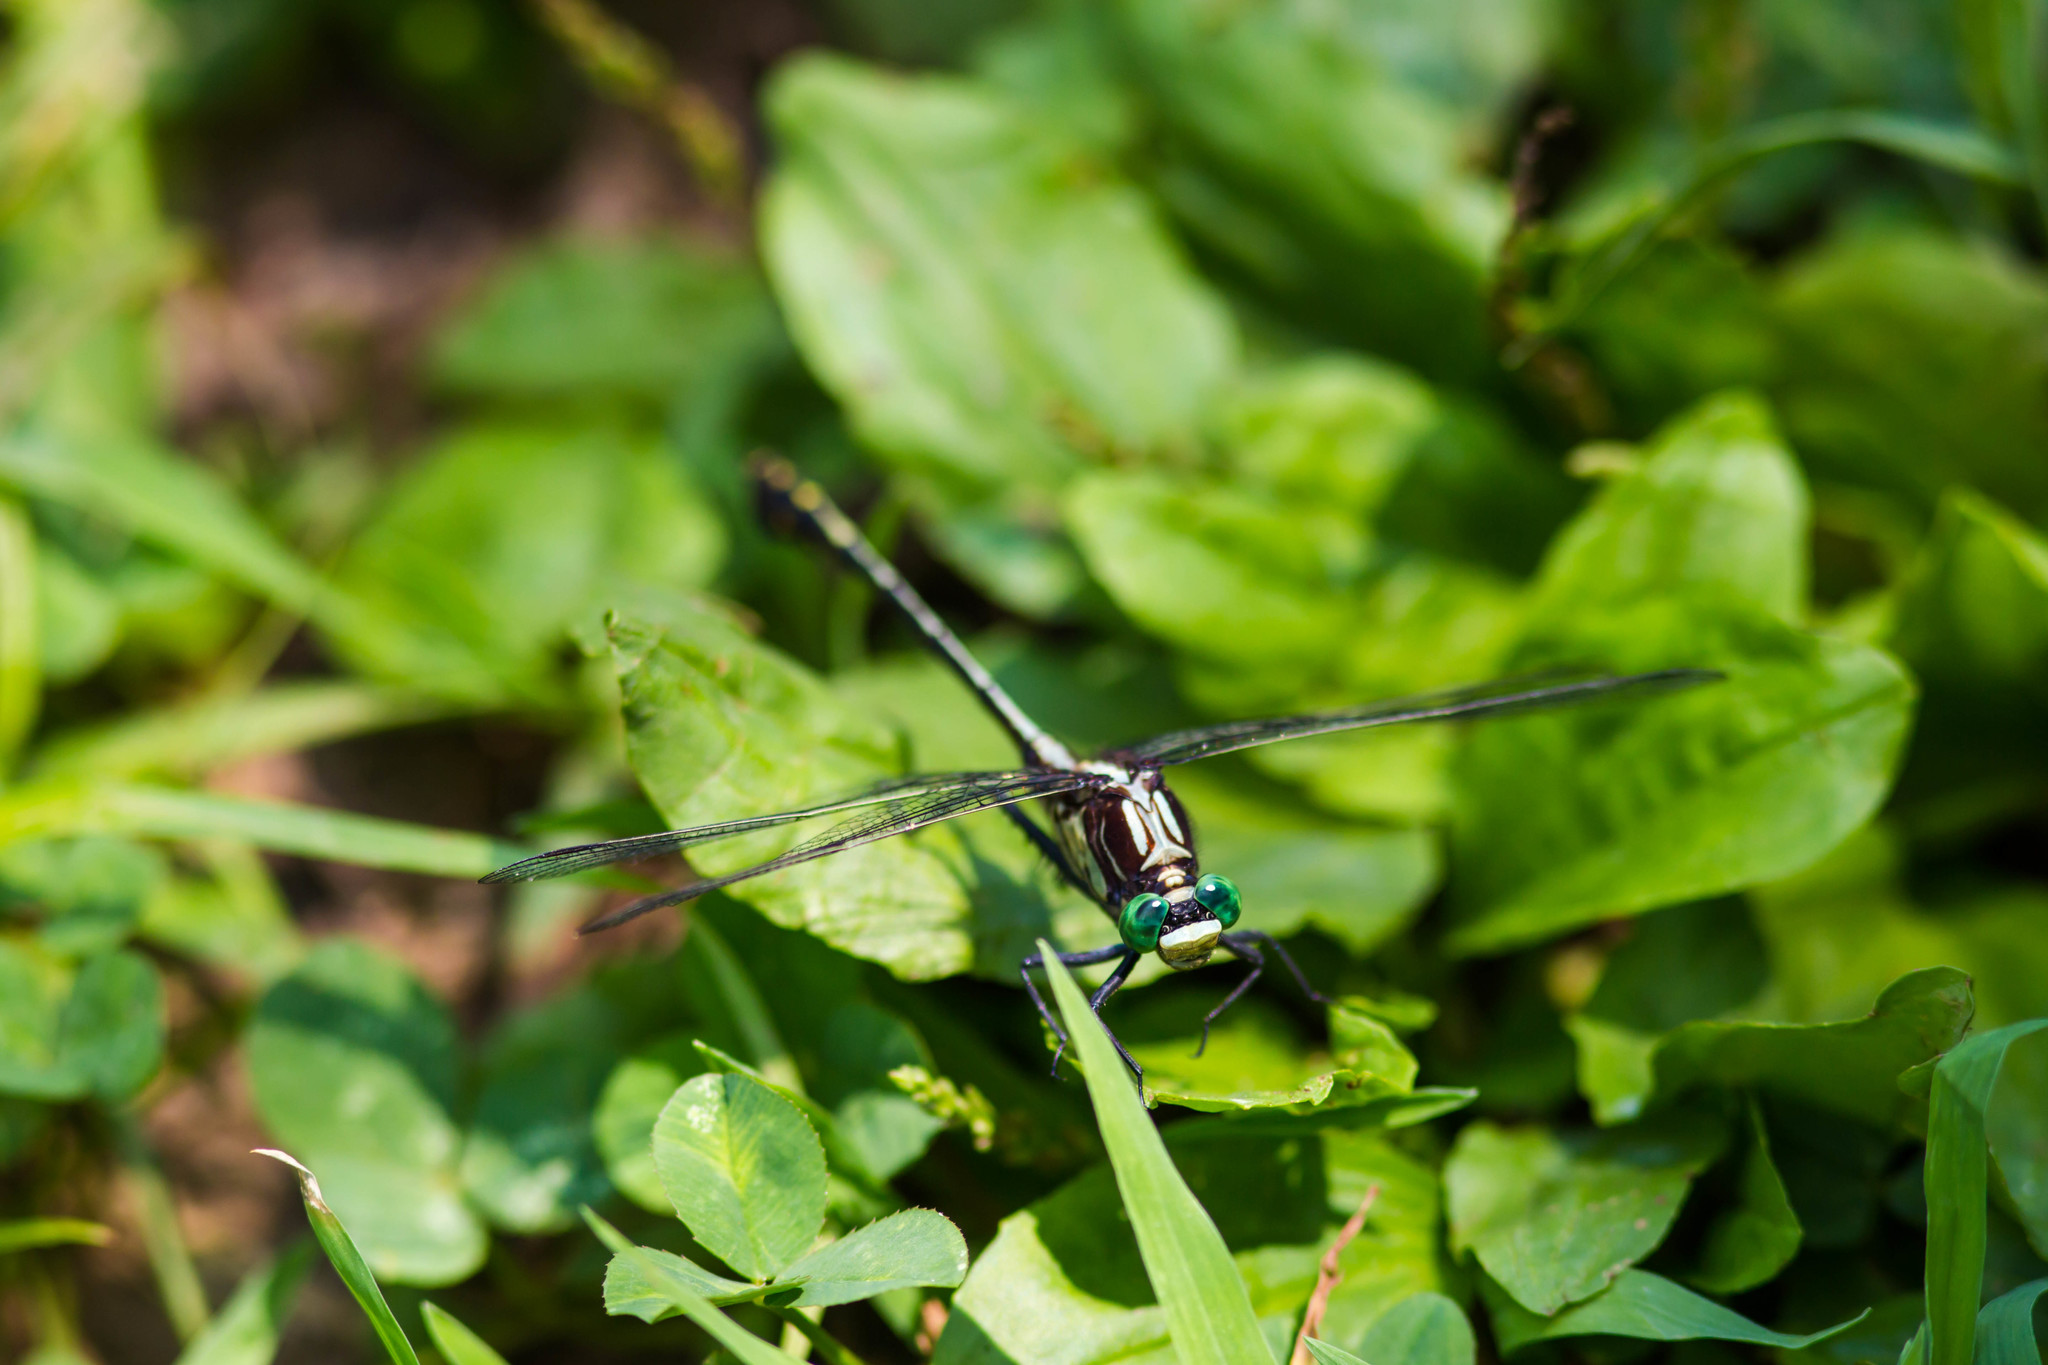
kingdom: Animalia
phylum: Arthropoda
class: Insecta
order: Odonata
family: Gomphidae
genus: Dromogomphus
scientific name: Dromogomphus spinosus
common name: Black-shouldered spinyleg
